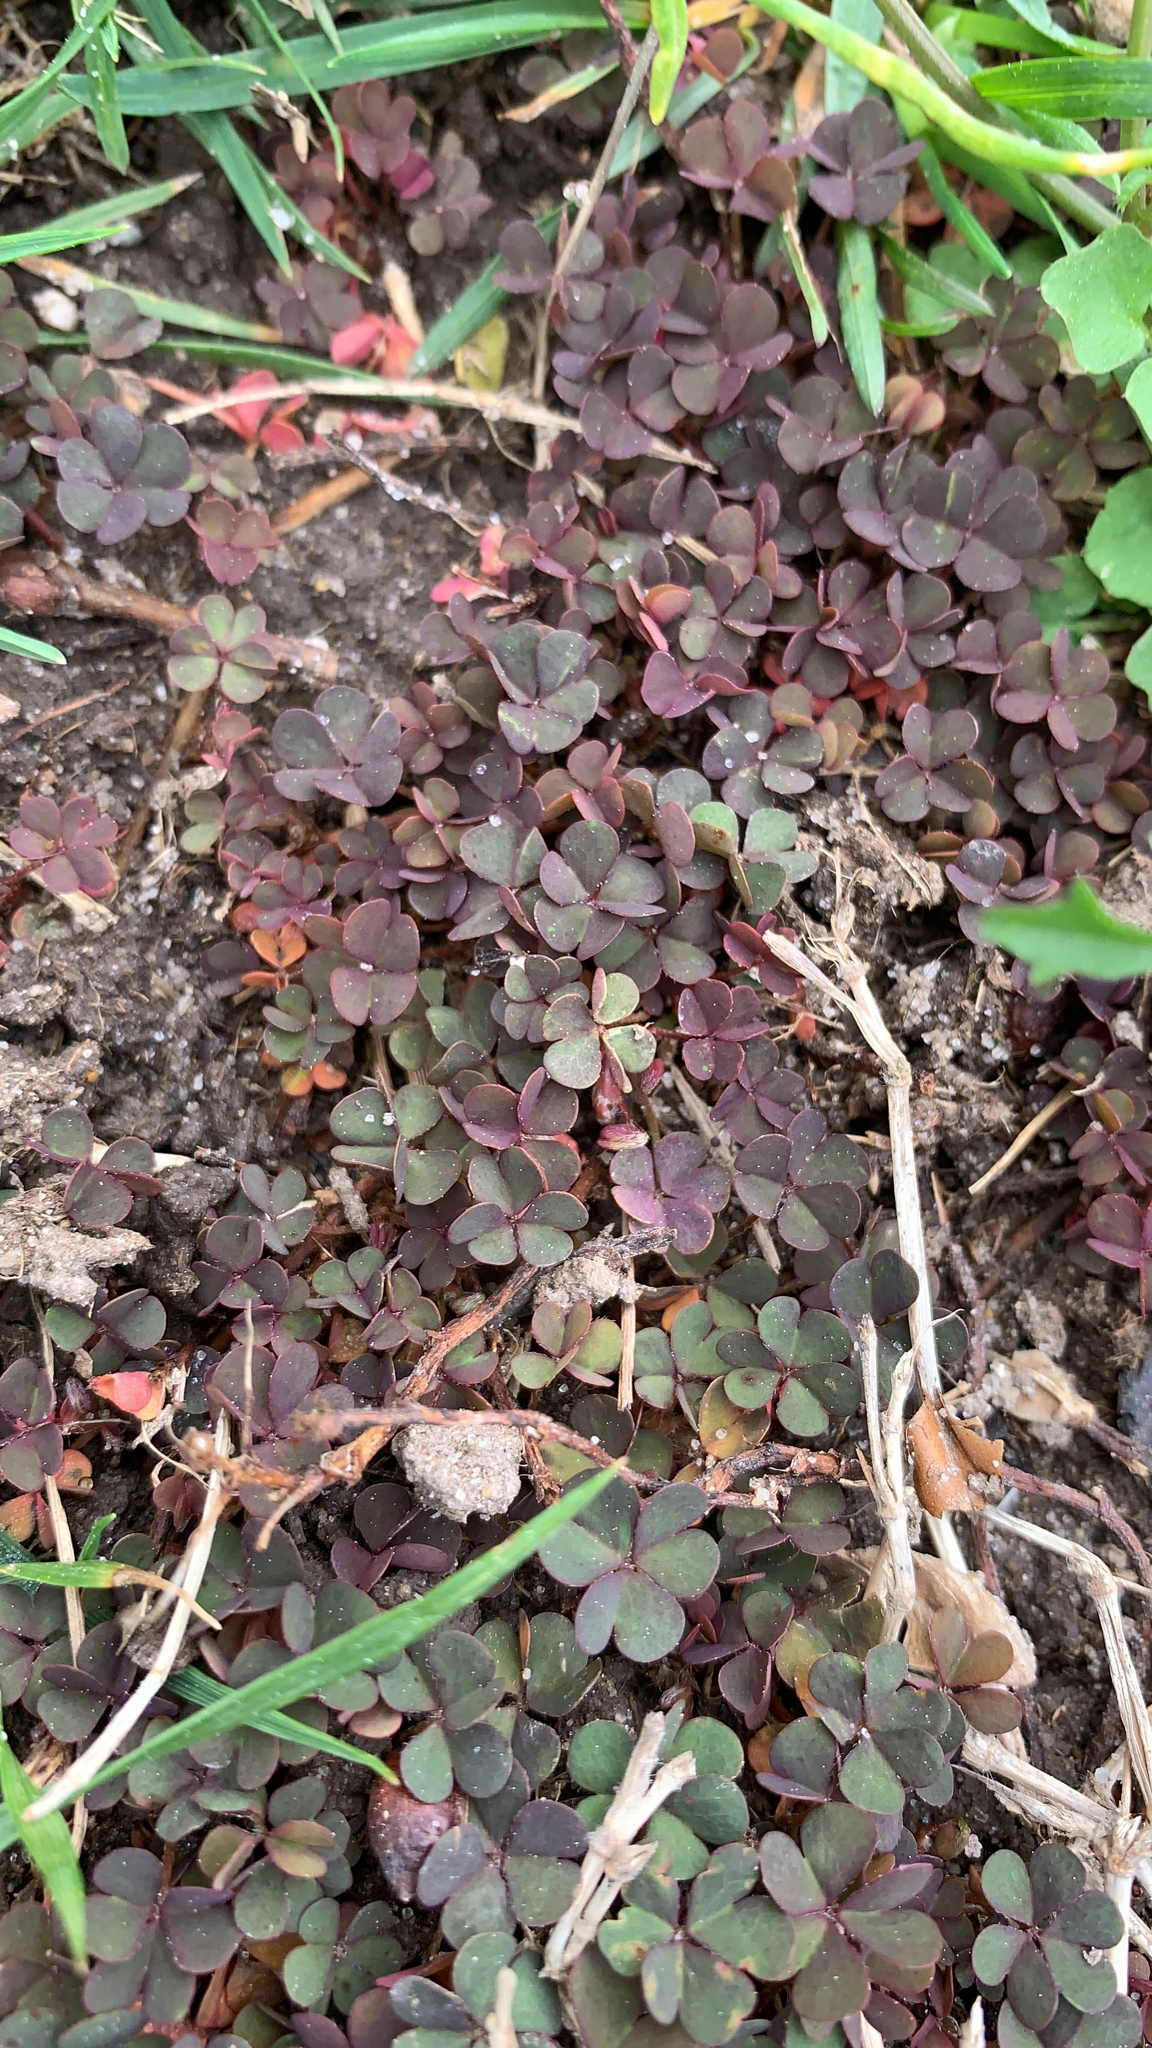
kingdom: Plantae
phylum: Tracheophyta
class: Magnoliopsida
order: Oxalidales
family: Oxalidaceae
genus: Oxalis
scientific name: Oxalis corniculata
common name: Procumbent yellow-sorrel
